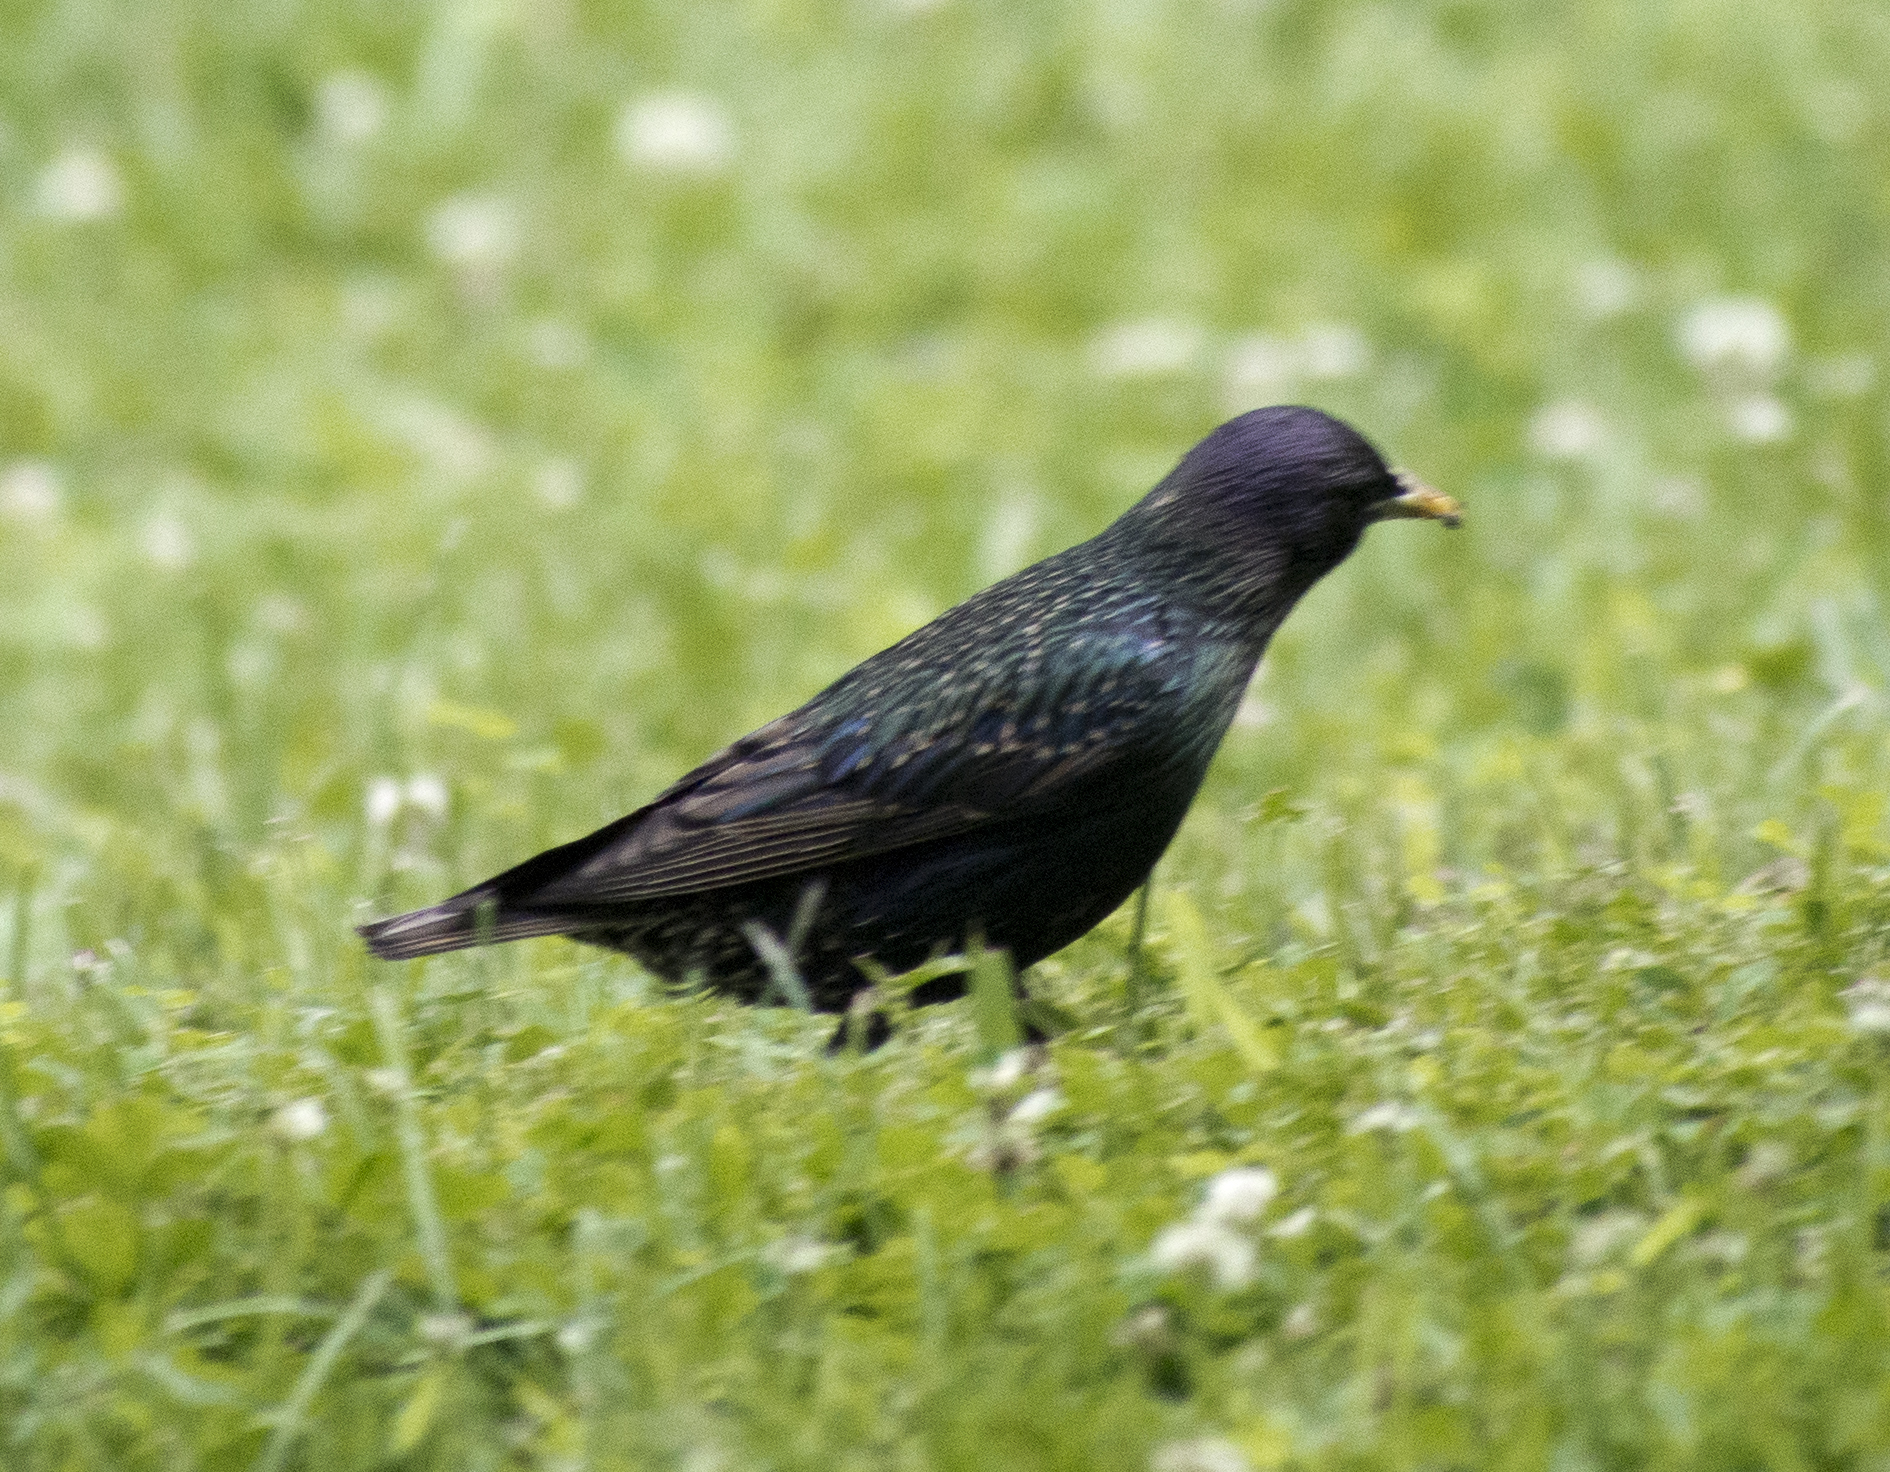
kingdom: Animalia
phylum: Chordata
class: Aves
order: Passeriformes
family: Sturnidae
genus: Sturnus
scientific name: Sturnus vulgaris
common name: Common starling
